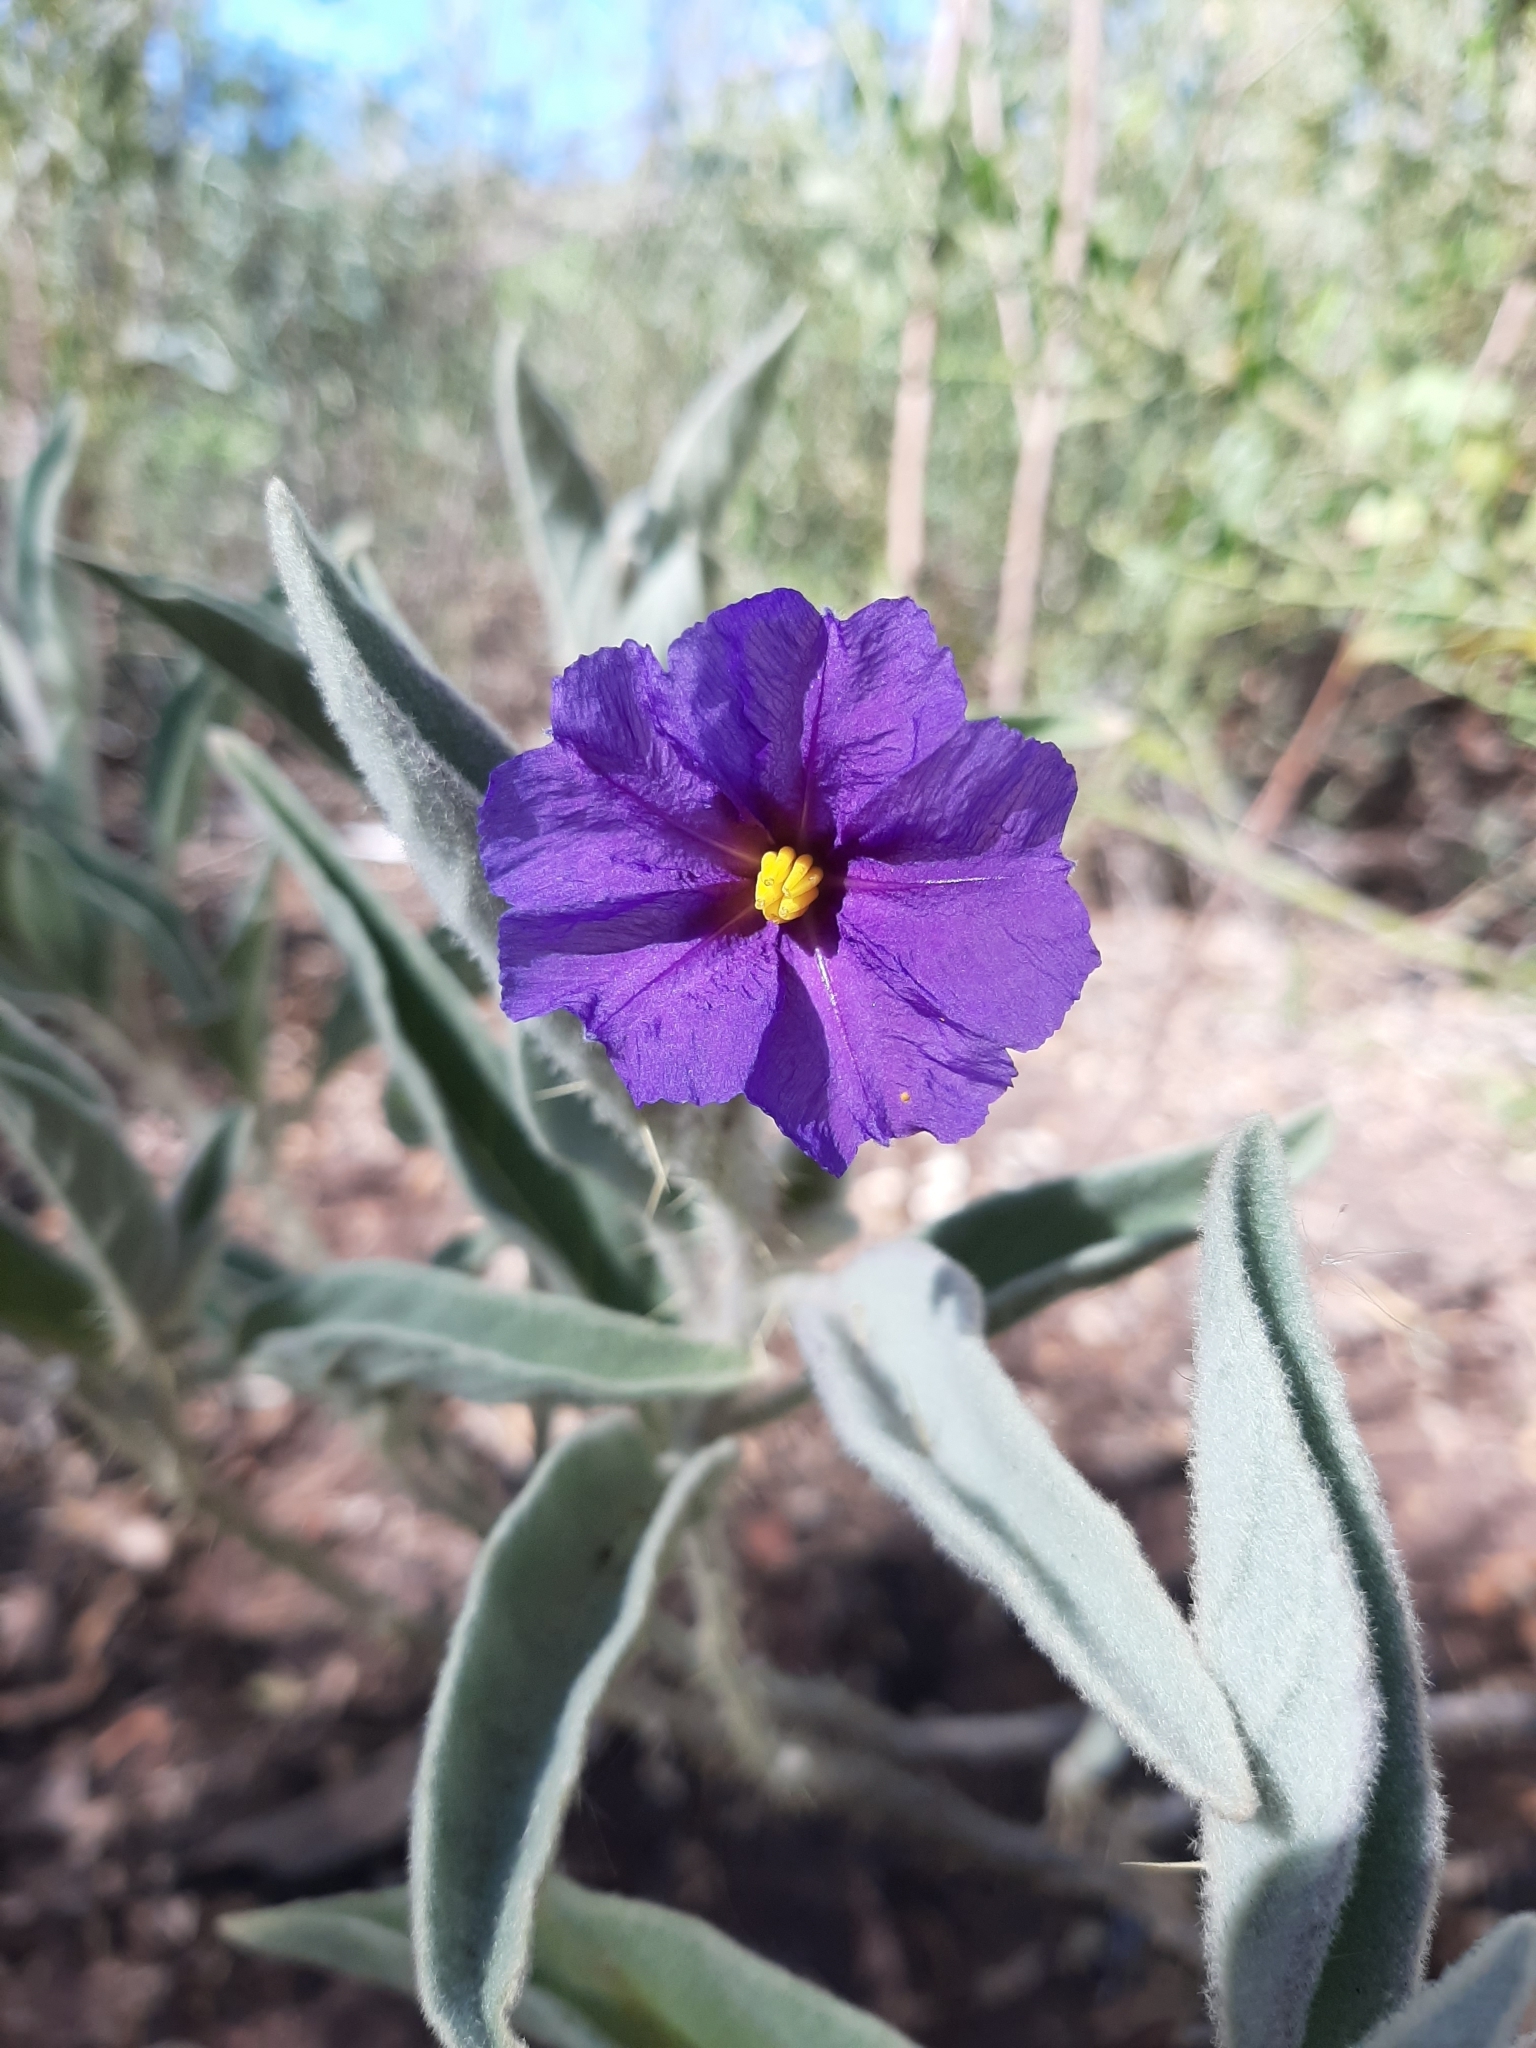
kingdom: Plantae
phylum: Tracheophyta
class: Magnoliopsida
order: Solanales
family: Solanaceae
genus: Solanum
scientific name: Solanum phlomoides
